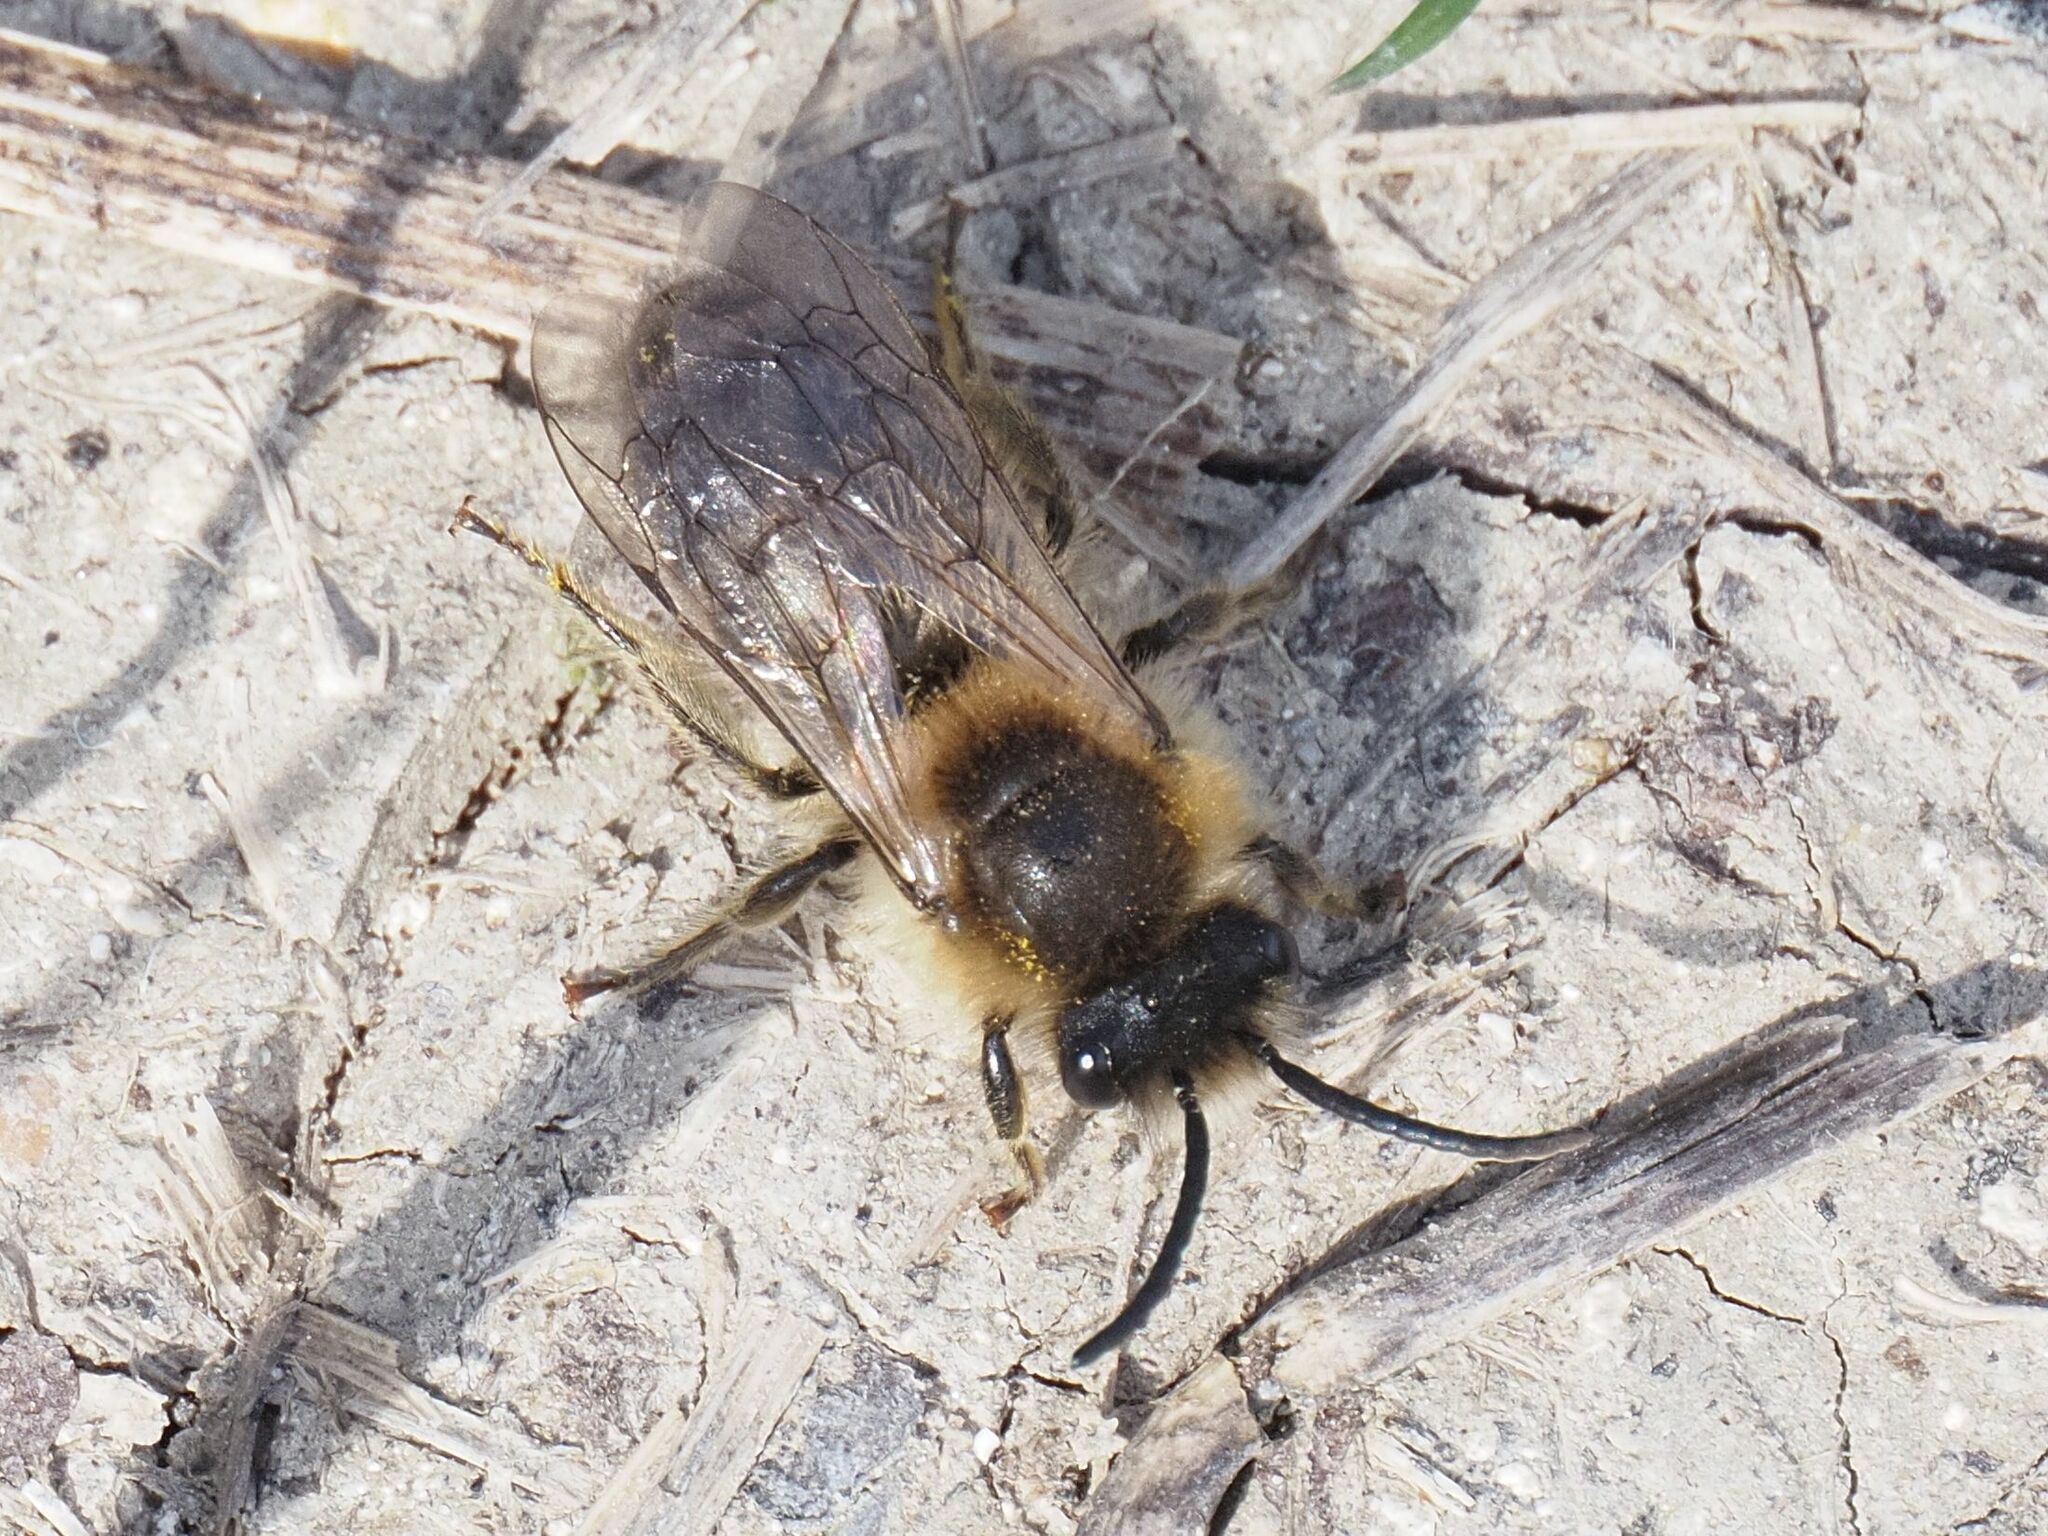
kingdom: Animalia
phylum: Arthropoda
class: Insecta
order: Hymenoptera
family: Colletidae
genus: Colletes
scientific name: Colletes cunicularius
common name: Early colletes
